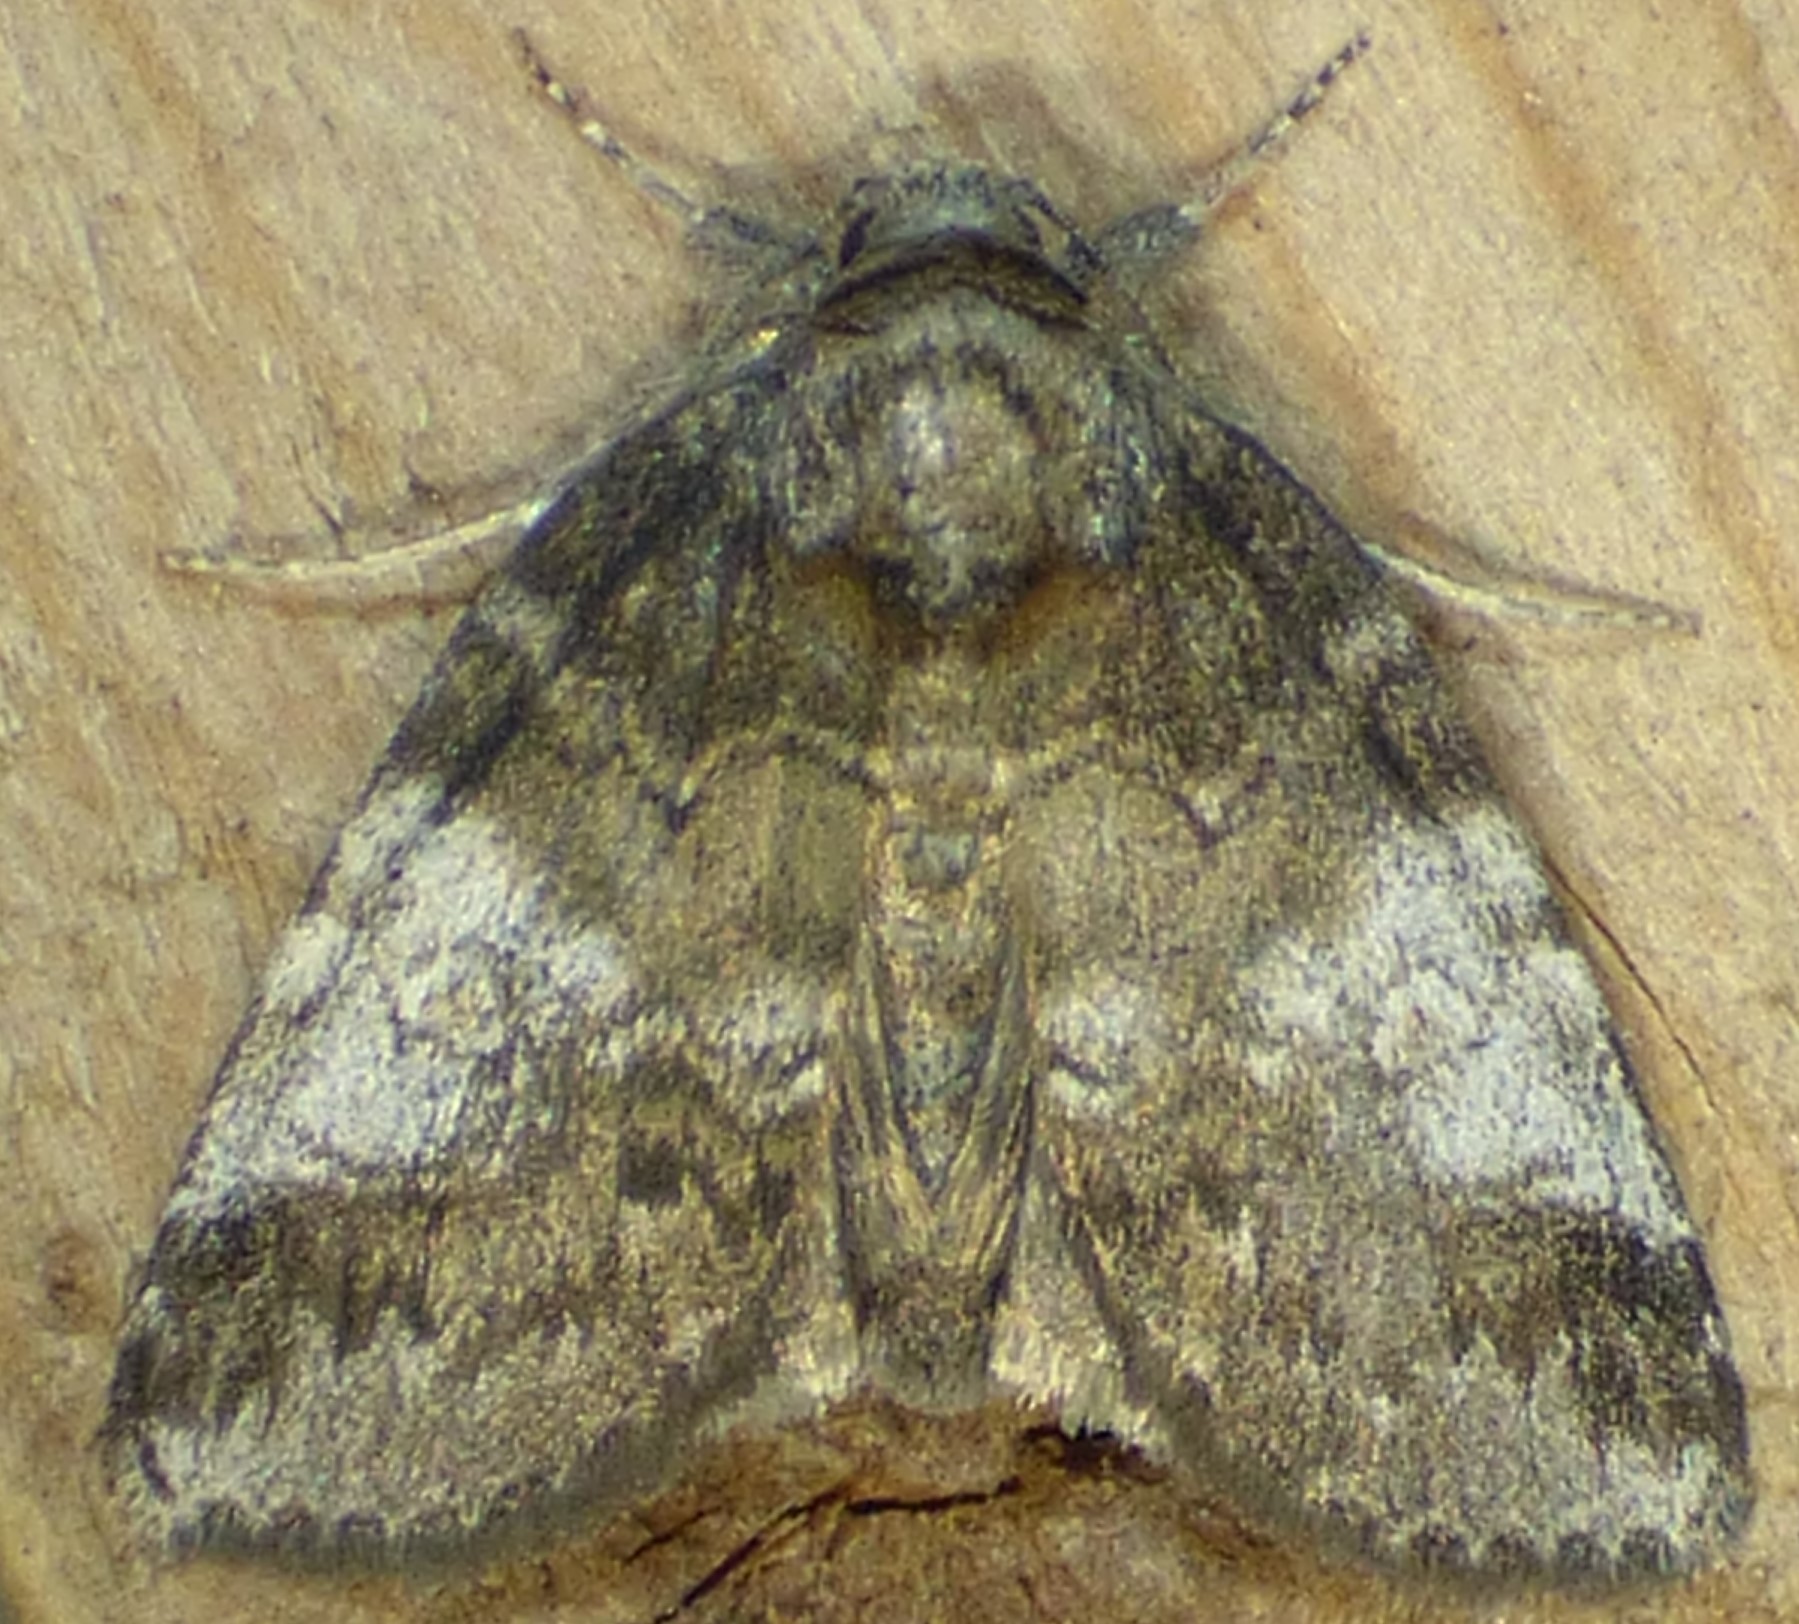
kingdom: Animalia
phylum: Arthropoda
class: Insecta
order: Lepidoptera
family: Nolidae
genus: Baileya
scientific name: Baileya levitans
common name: Pale baileya
